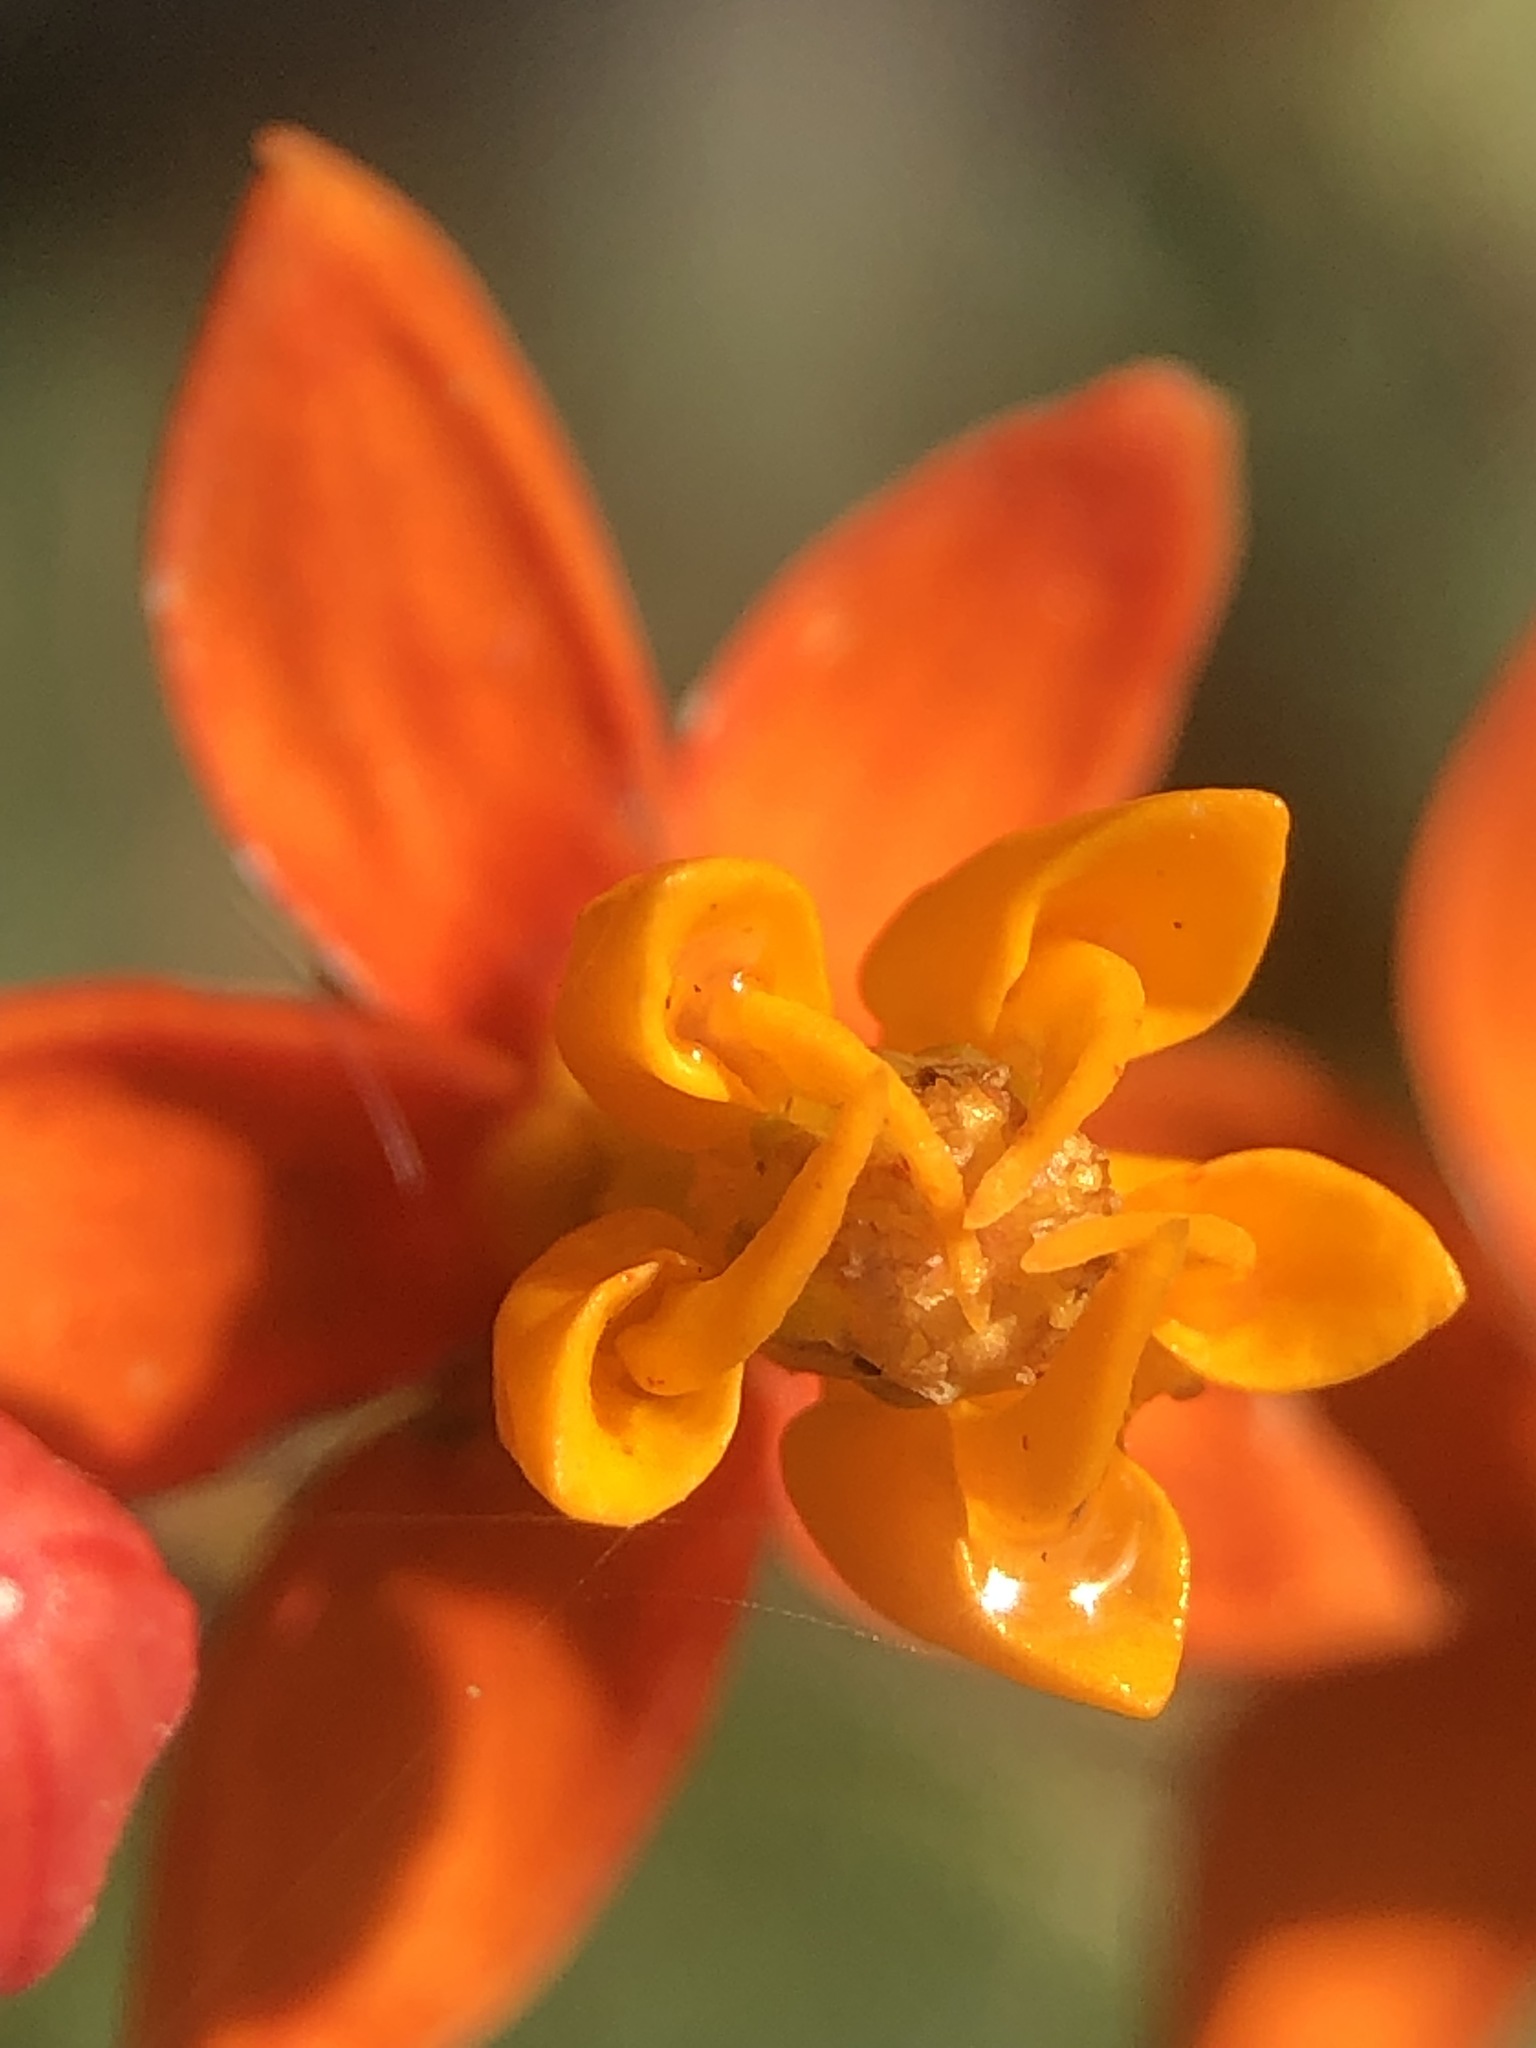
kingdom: Plantae
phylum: Tracheophyta
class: Magnoliopsida
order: Gentianales
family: Apocynaceae
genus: Asclepias
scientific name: Asclepias curassavica
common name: Bloodflower
